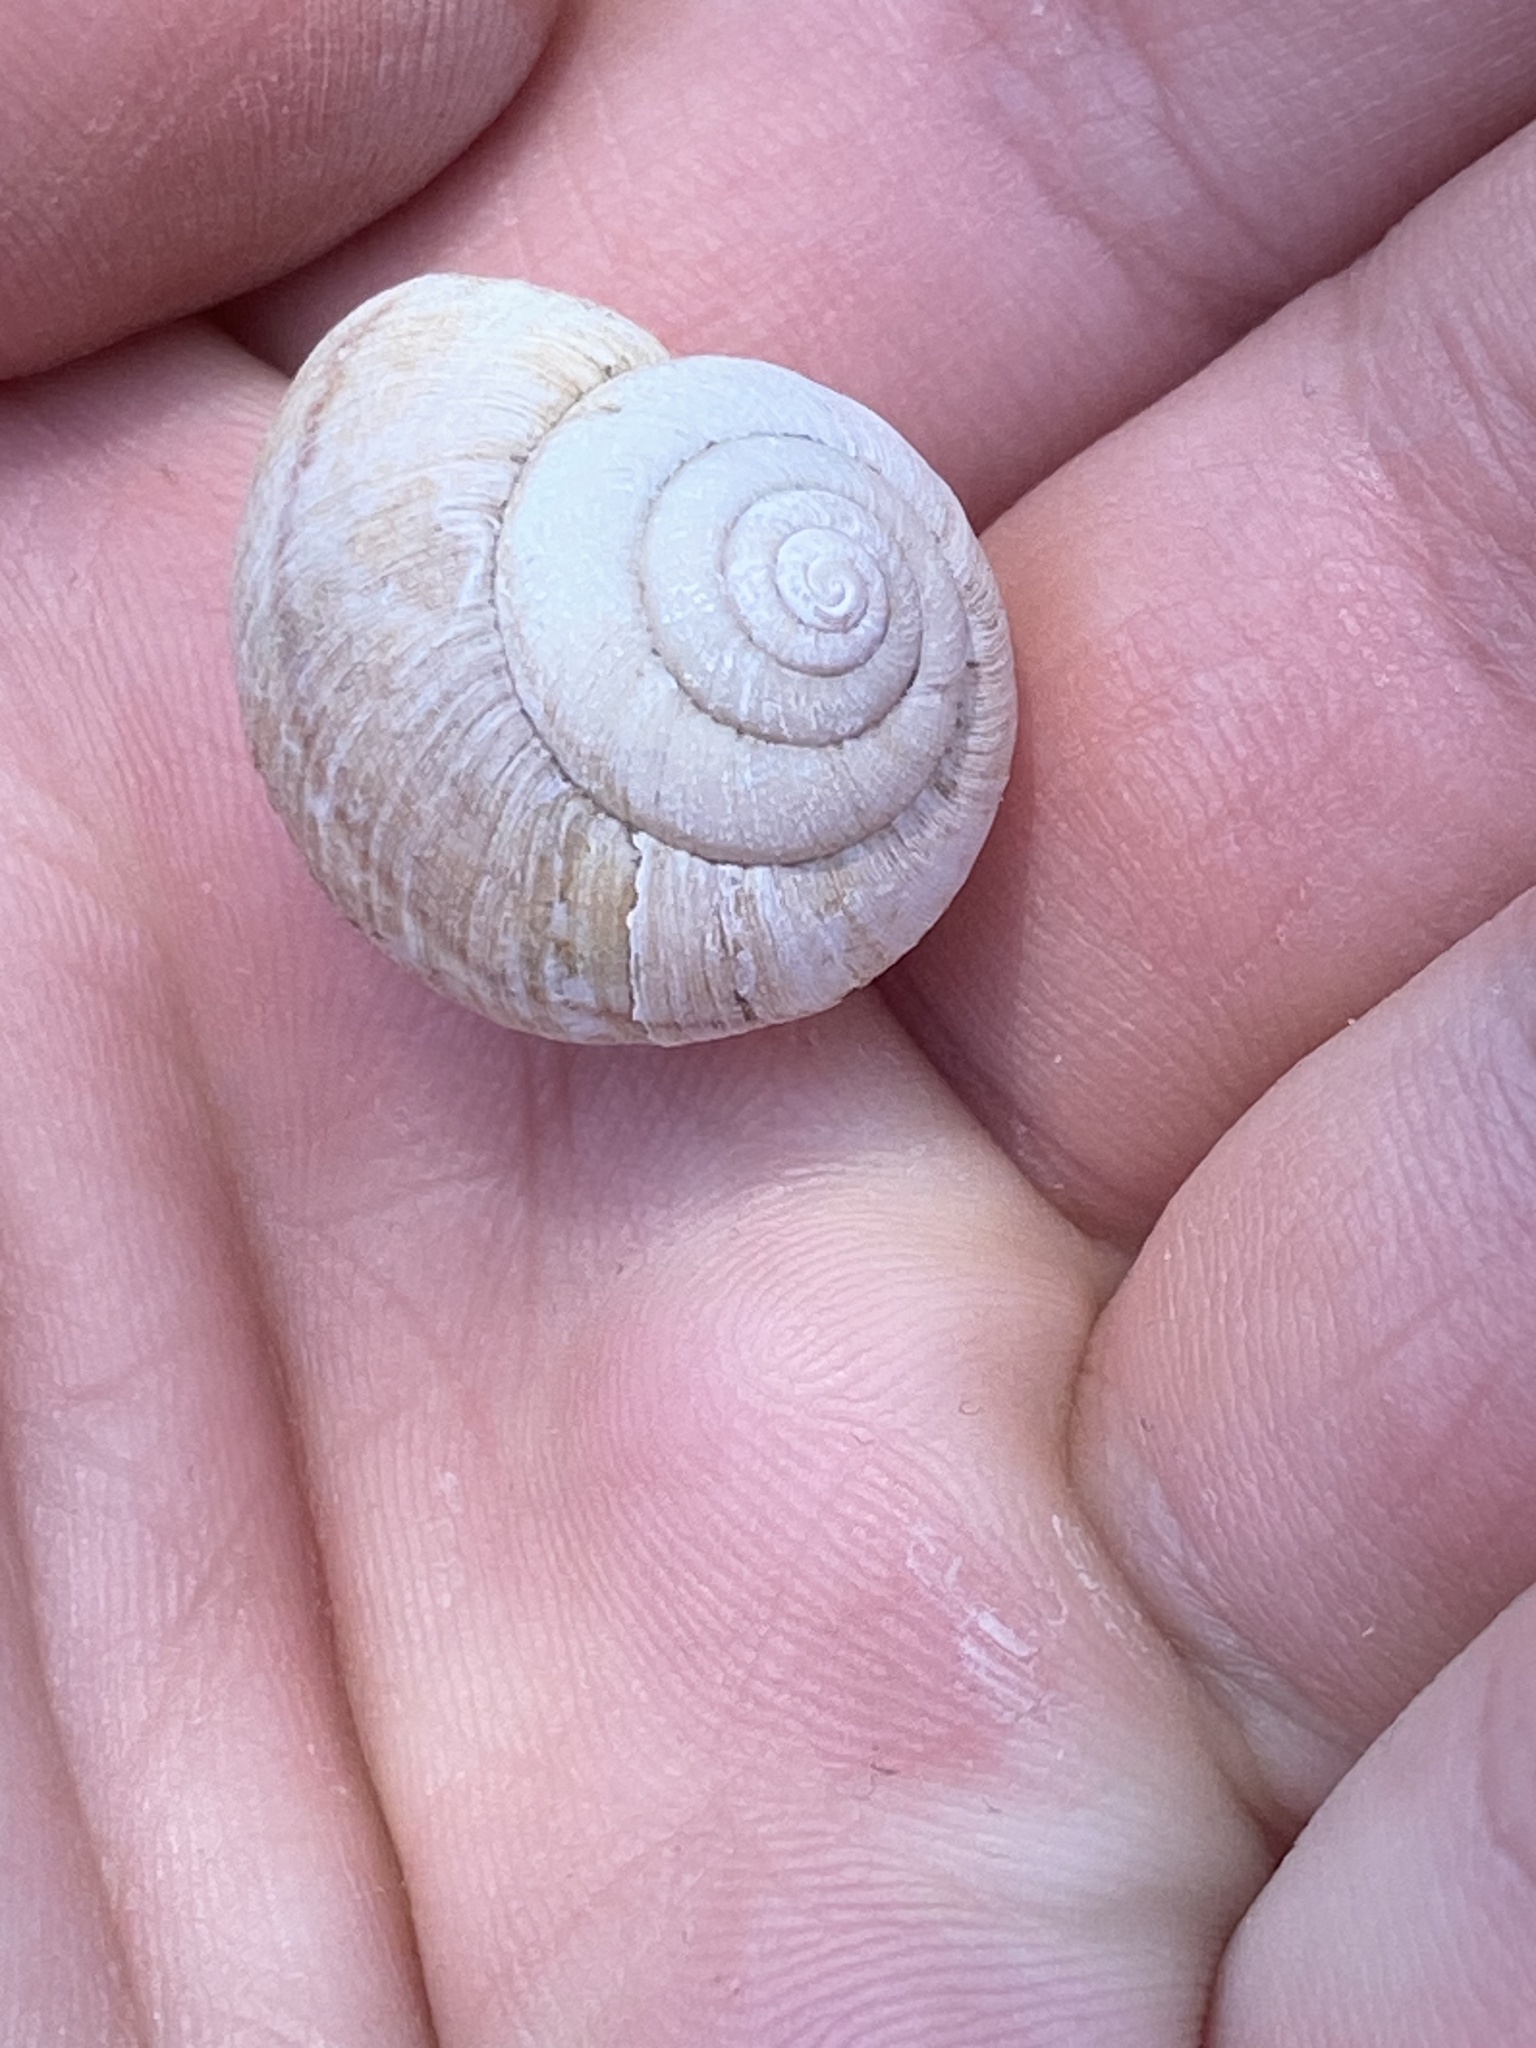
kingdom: Animalia
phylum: Mollusca
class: Gastropoda
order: Stylommatophora
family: Xanthonychidae
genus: Helminthoglypta
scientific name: Helminthoglypta nickliniana
